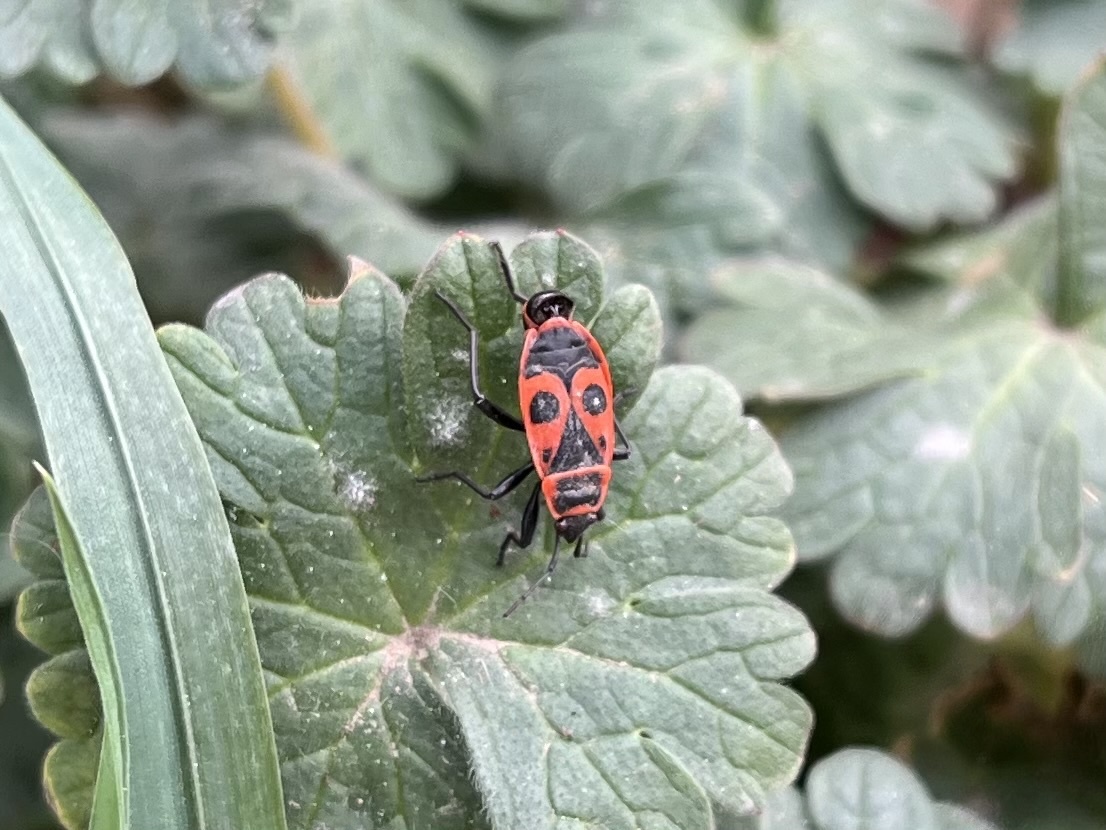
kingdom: Animalia
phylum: Arthropoda
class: Insecta
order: Hemiptera
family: Pyrrhocoridae
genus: Pyrrhocoris
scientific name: Pyrrhocoris apterus
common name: Firebug
